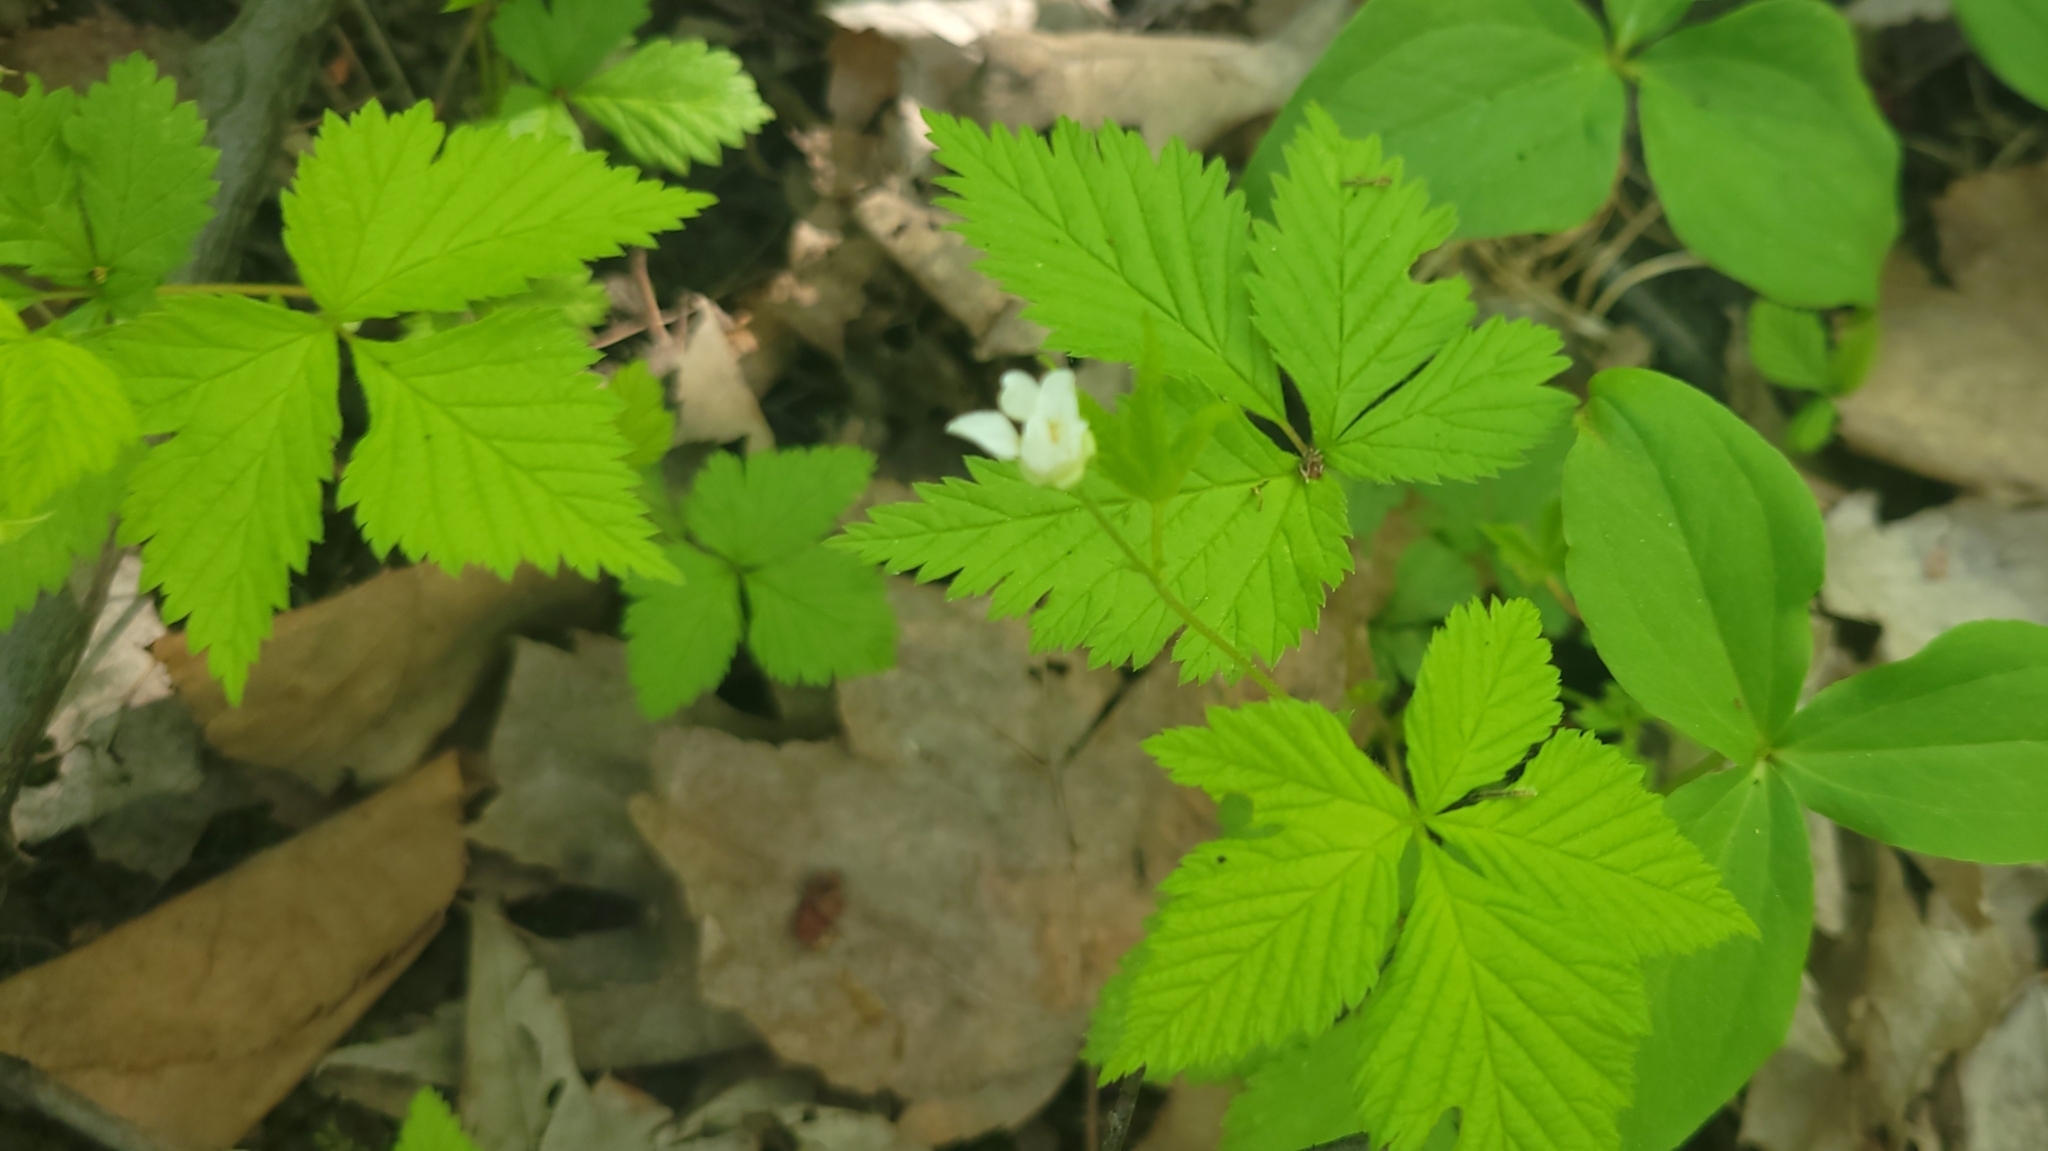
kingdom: Plantae
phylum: Tracheophyta
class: Magnoliopsida
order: Rosales
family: Rosaceae
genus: Rubus
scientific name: Rubus pubescens
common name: Dwarf raspberry
